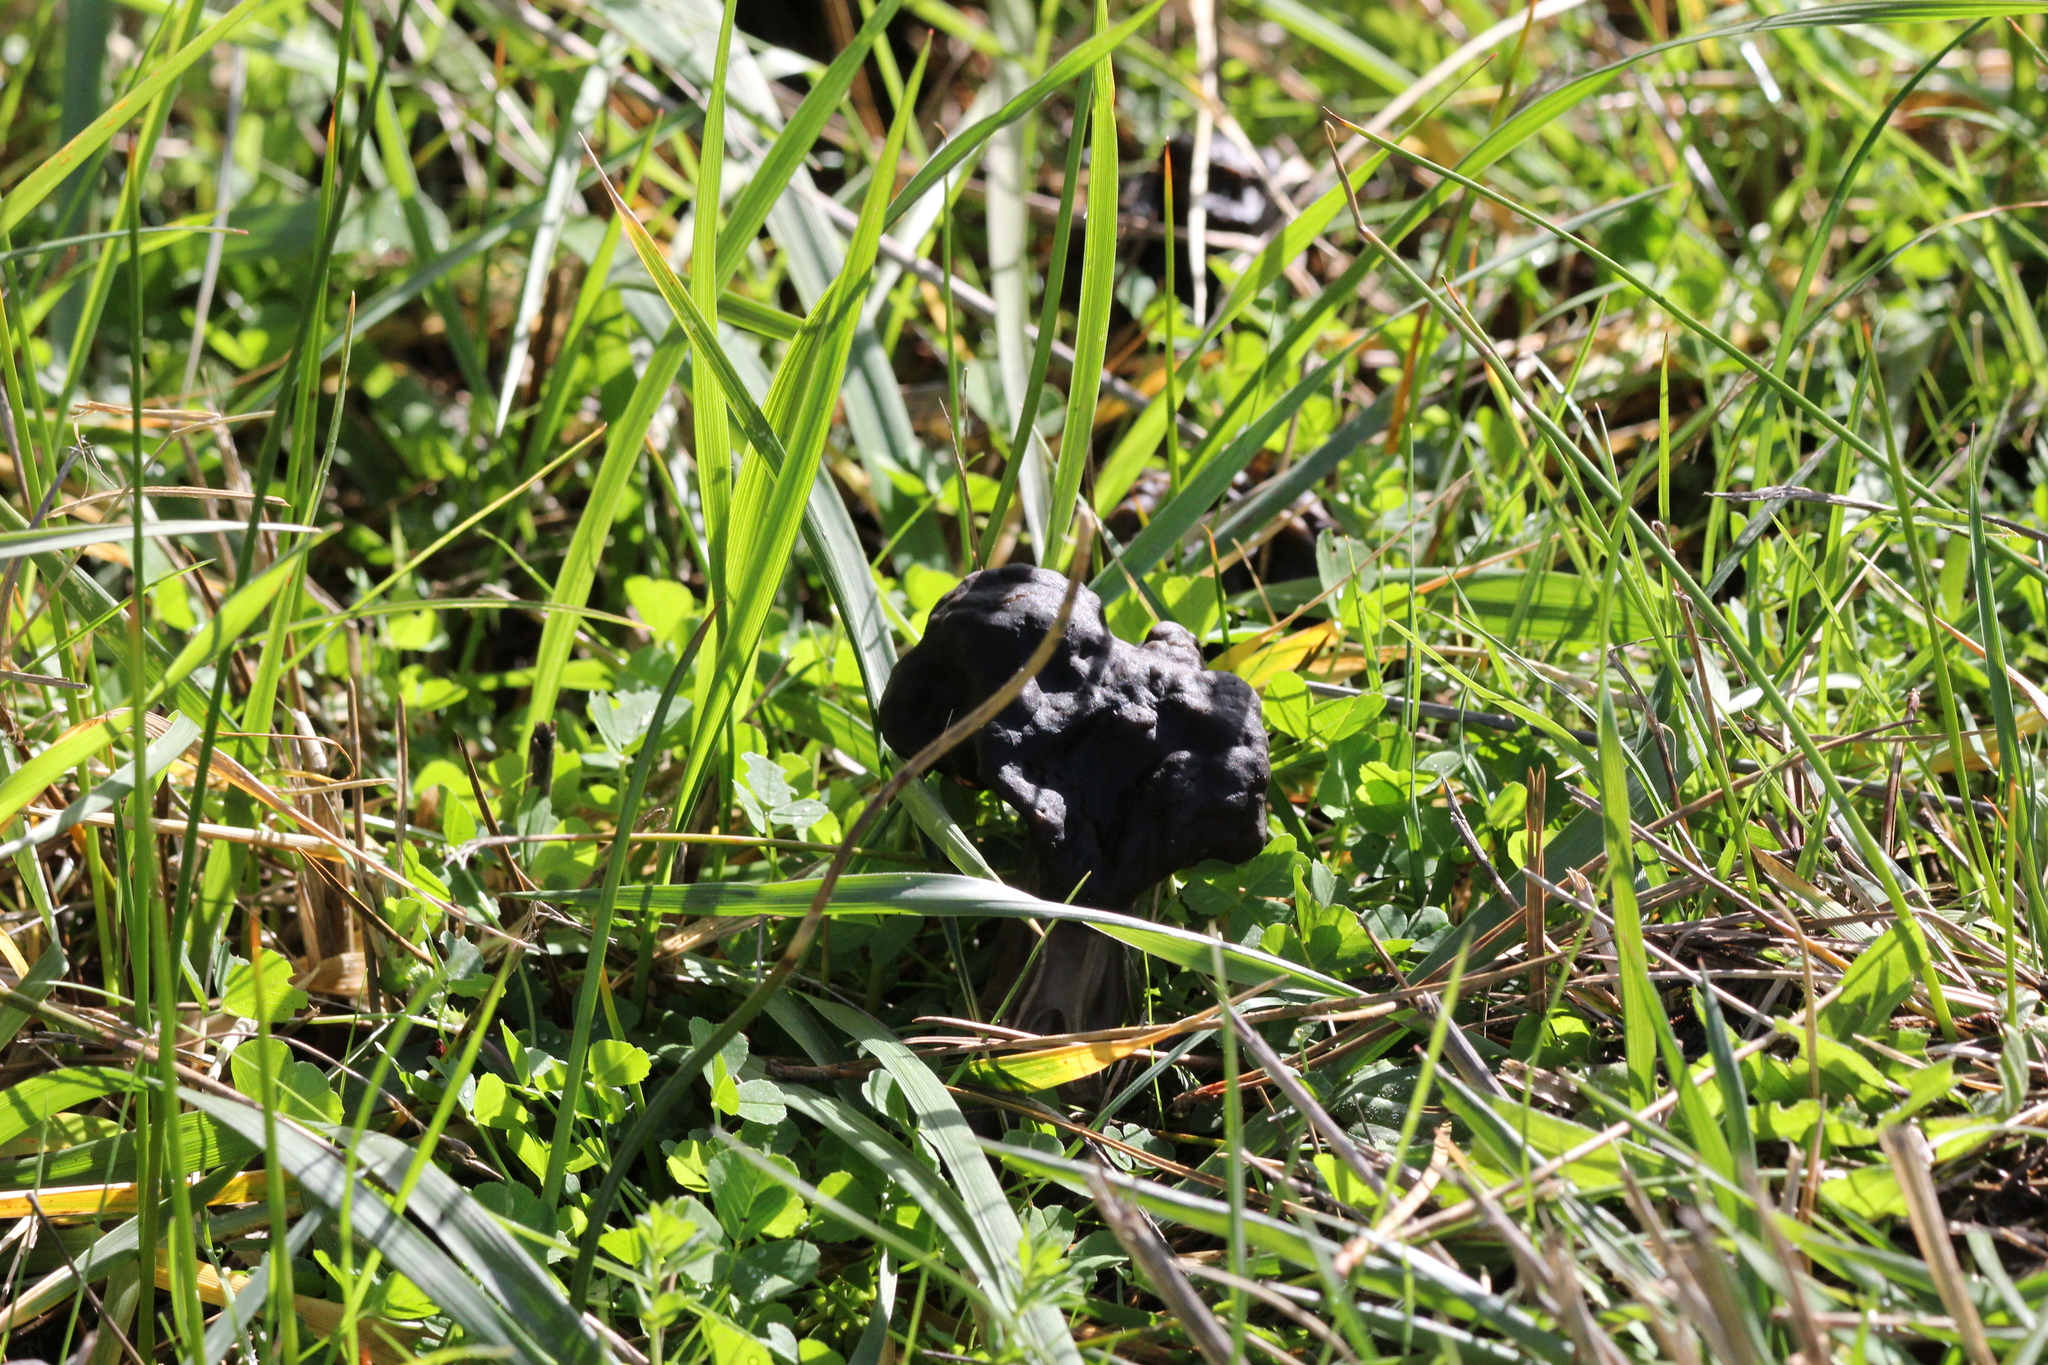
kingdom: Fungi
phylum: Ascomycota
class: Pezizomycetes
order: Pezizales
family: Helvellaceae
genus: Helvella
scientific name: Helvella vespertina
